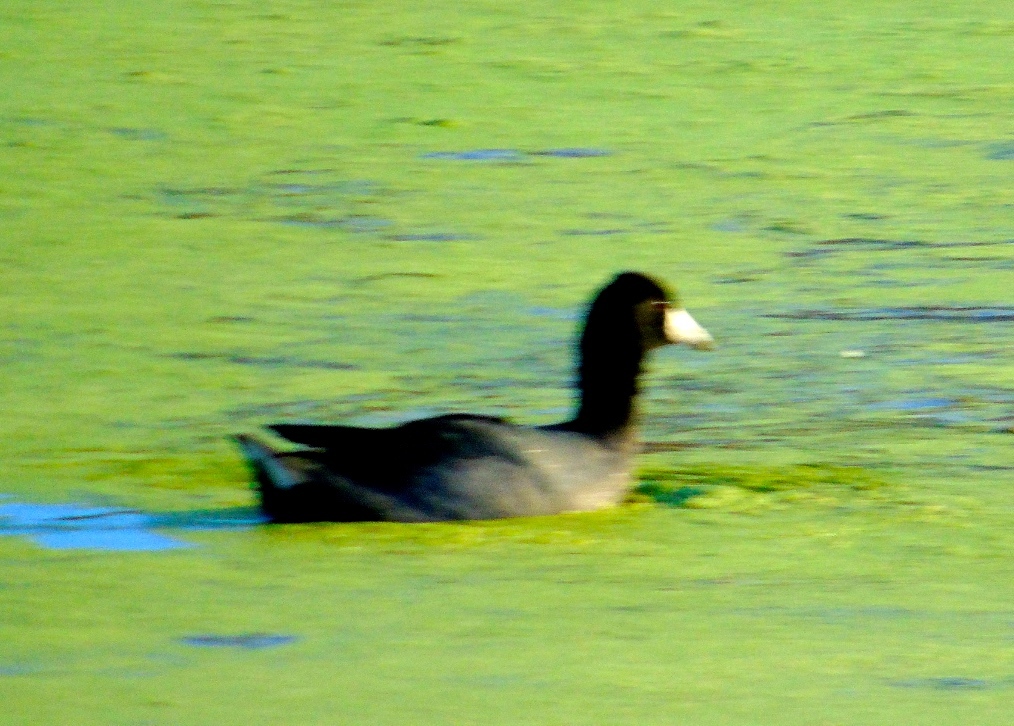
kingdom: Animalia
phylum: Chordata
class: Aves
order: Gruiformes
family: Rallidae
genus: Fulica
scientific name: Fulica americana
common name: American coot
